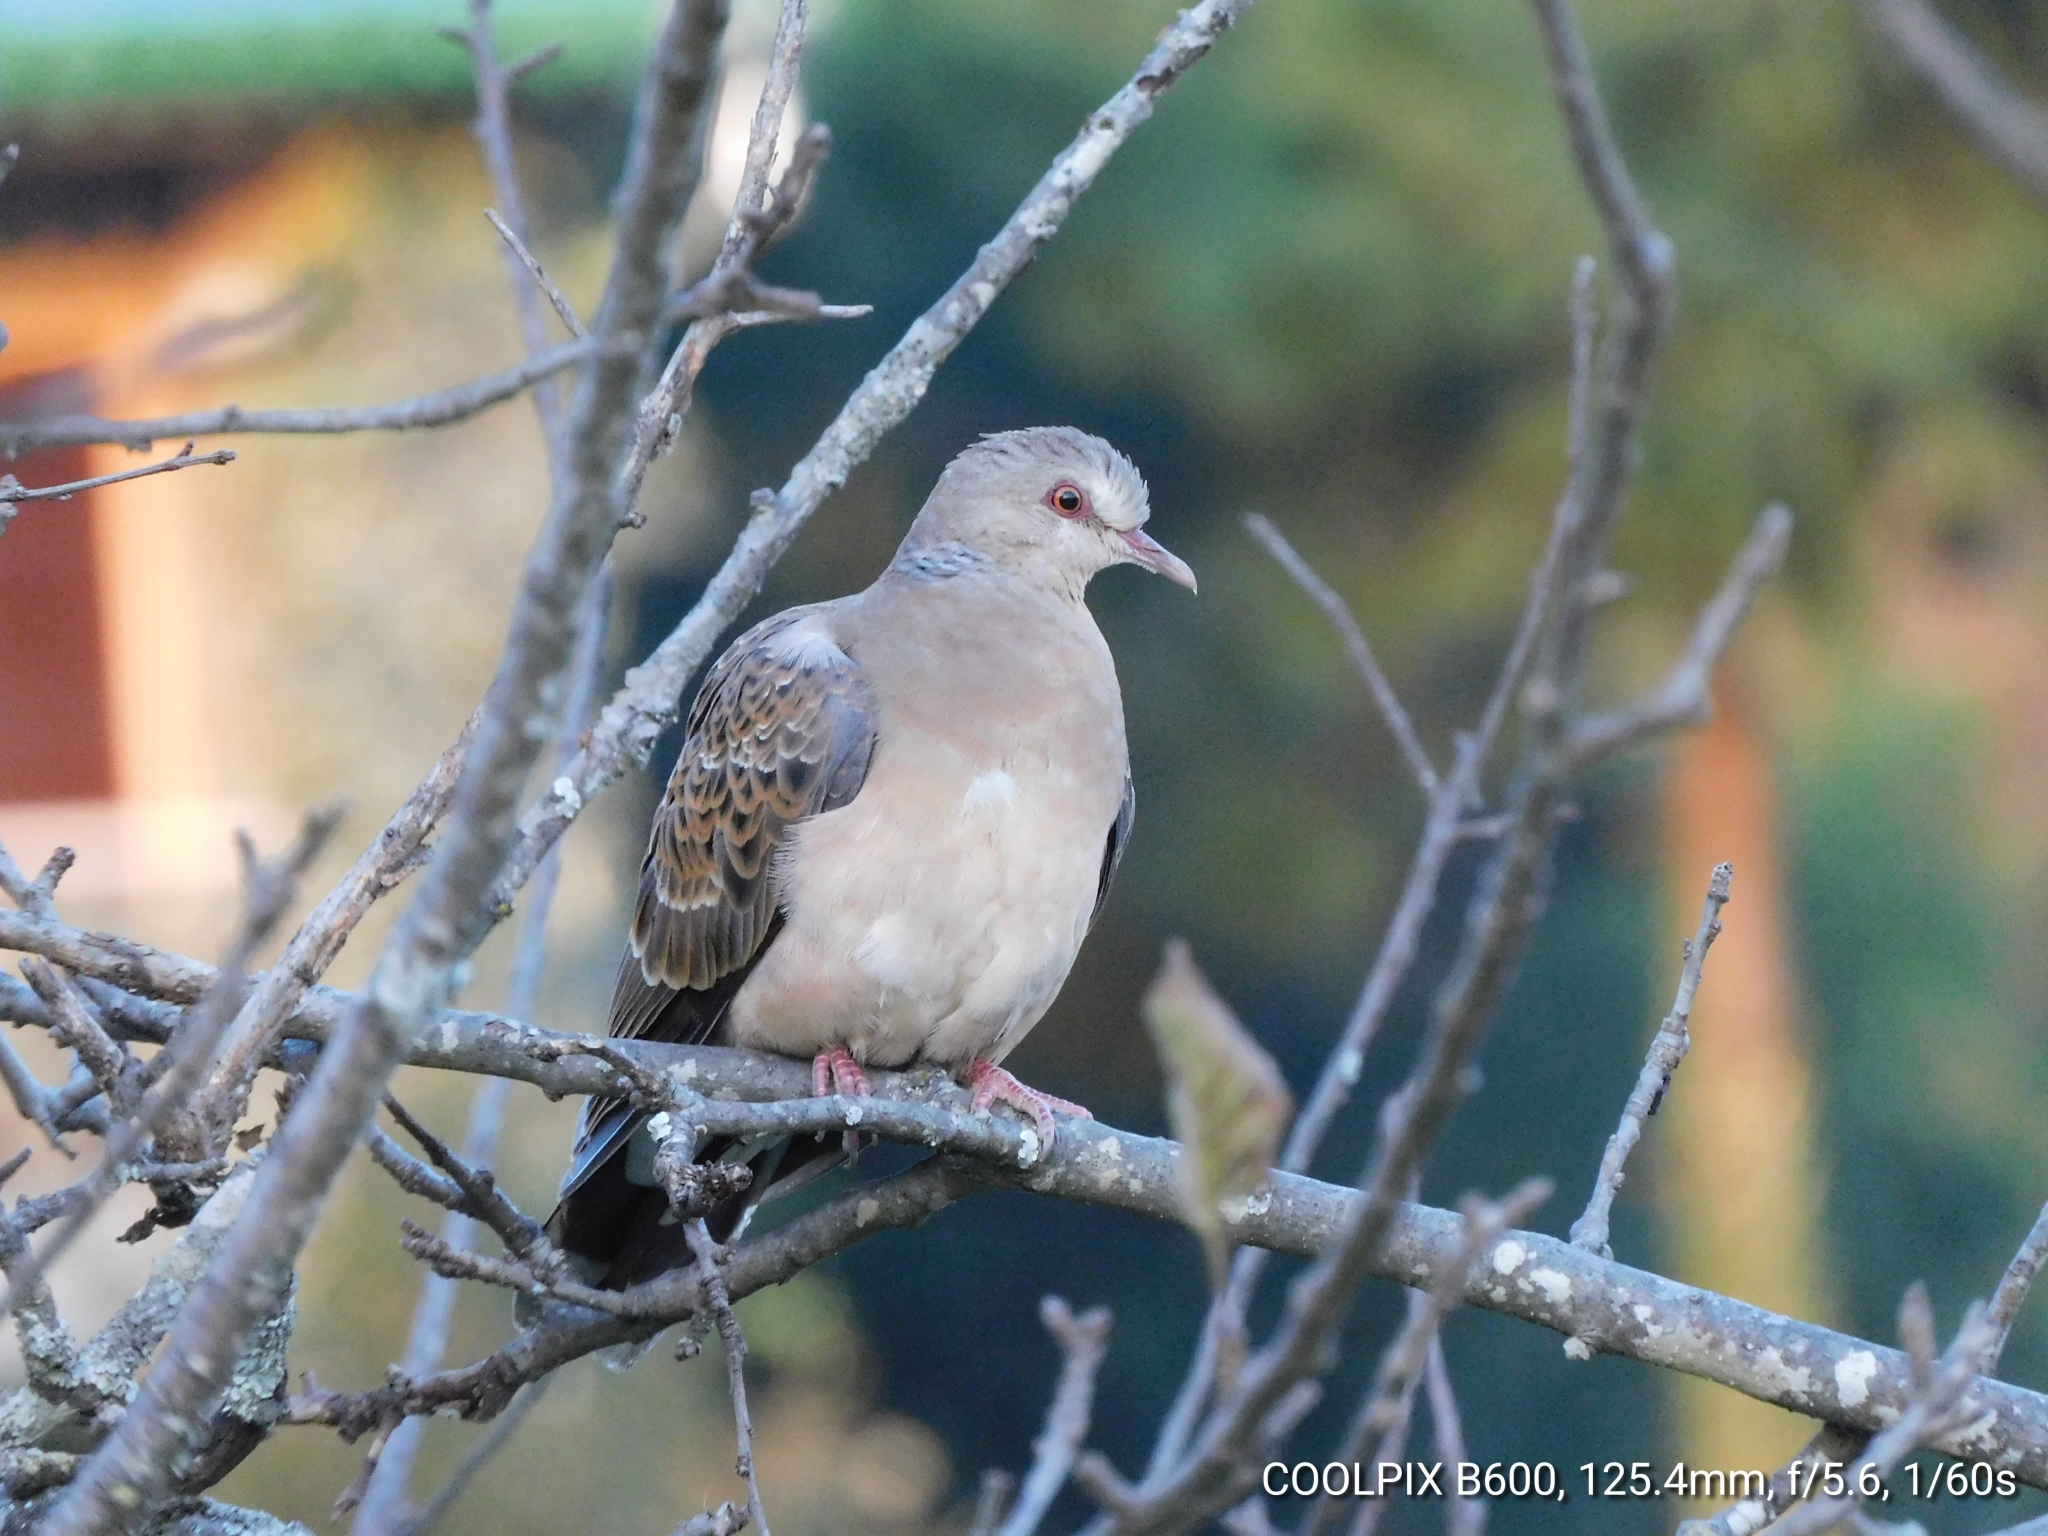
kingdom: Animalia
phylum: Chordata
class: Aves
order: Columbiformes
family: Columbidae
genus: Streptopelia
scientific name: Streptopelia orientalis
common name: Oriental turtle dove
